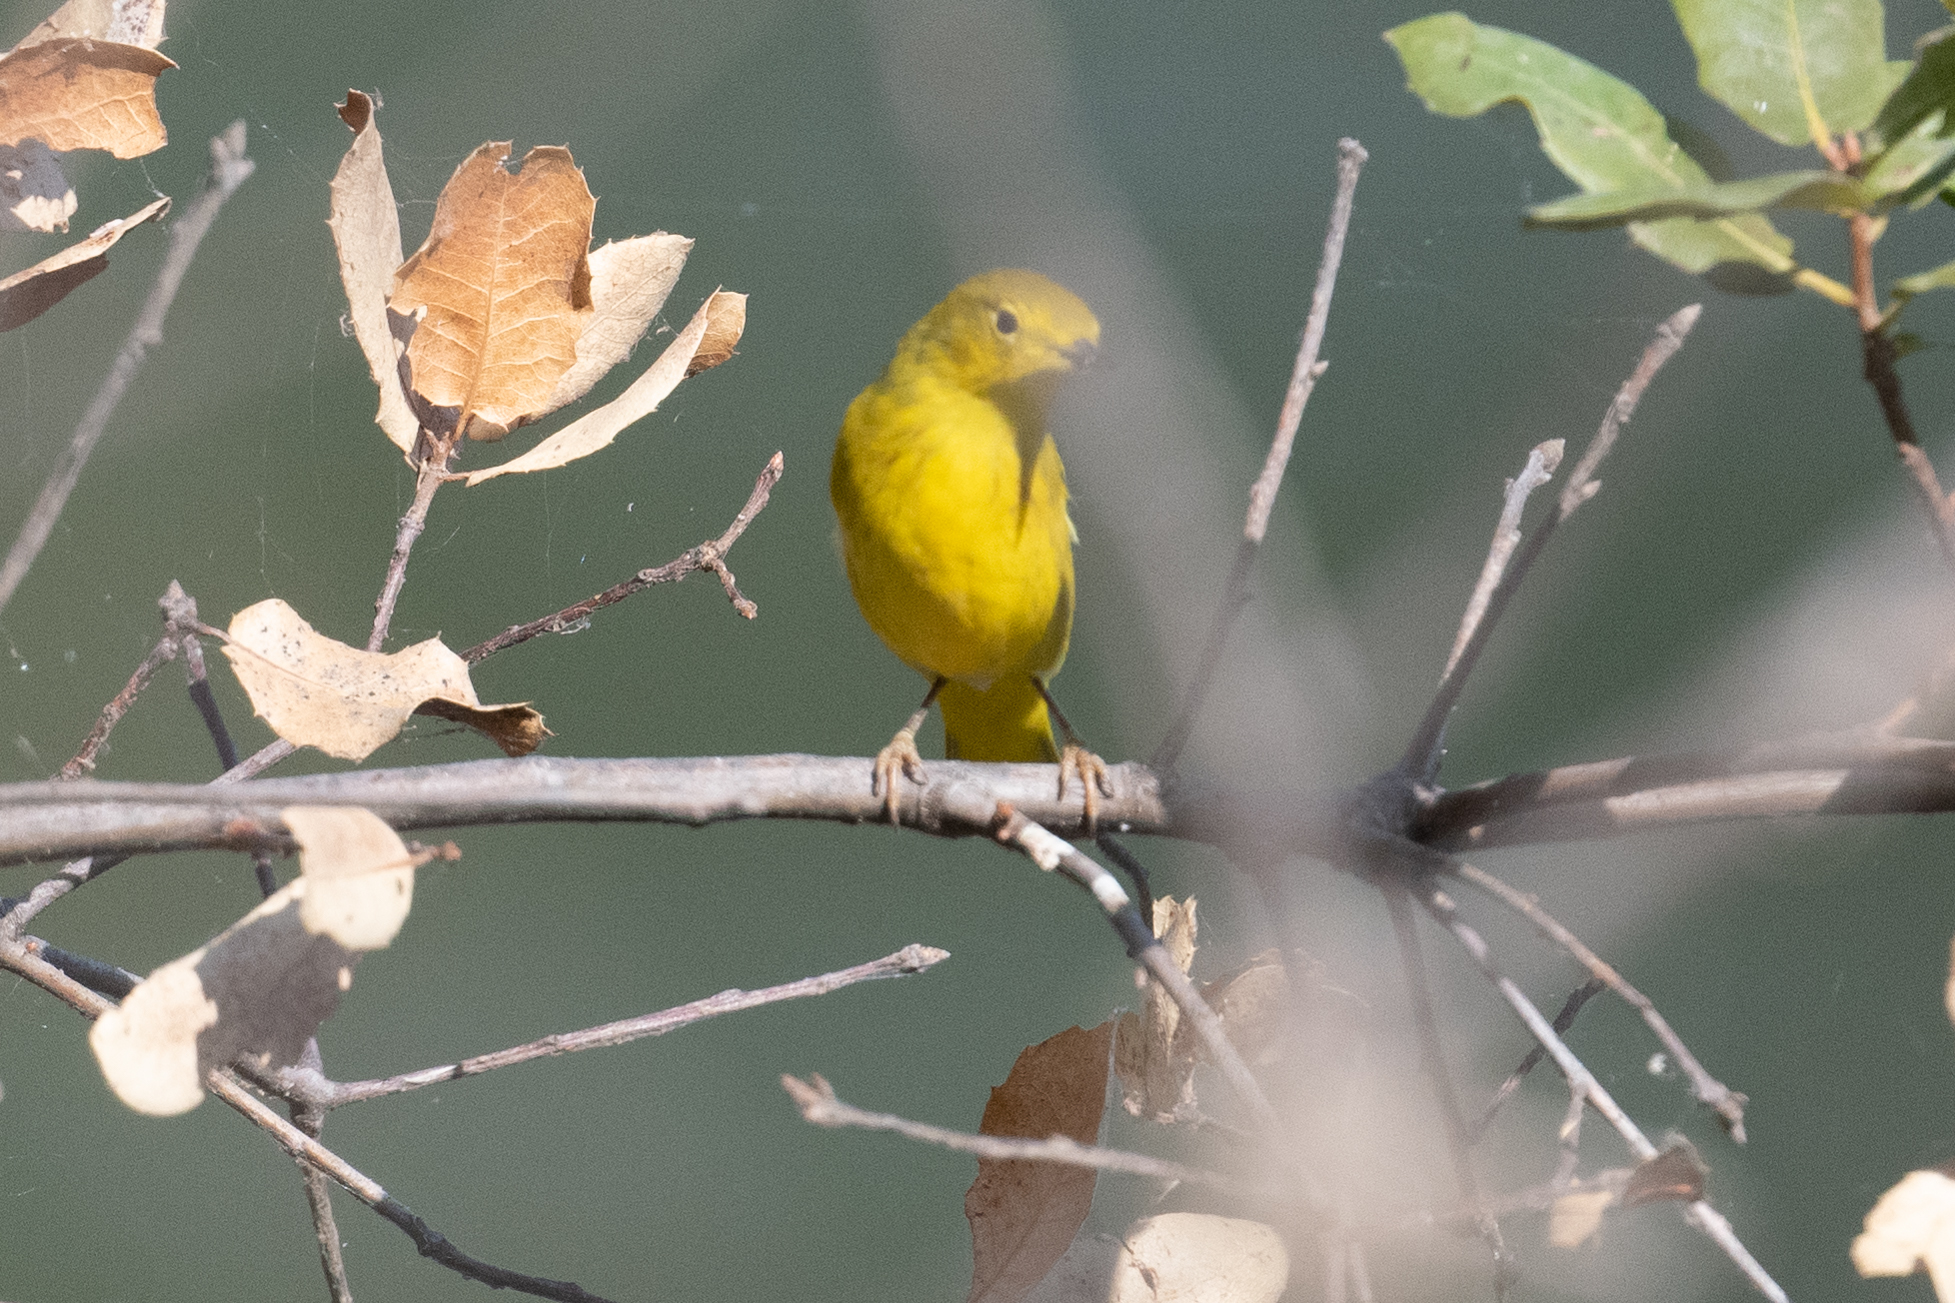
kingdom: Animalia
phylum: Chordata
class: Aves
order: Passeriformes
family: Parulidae
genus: Setophaga
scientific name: Setophaga petechia
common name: Yellow warbler
